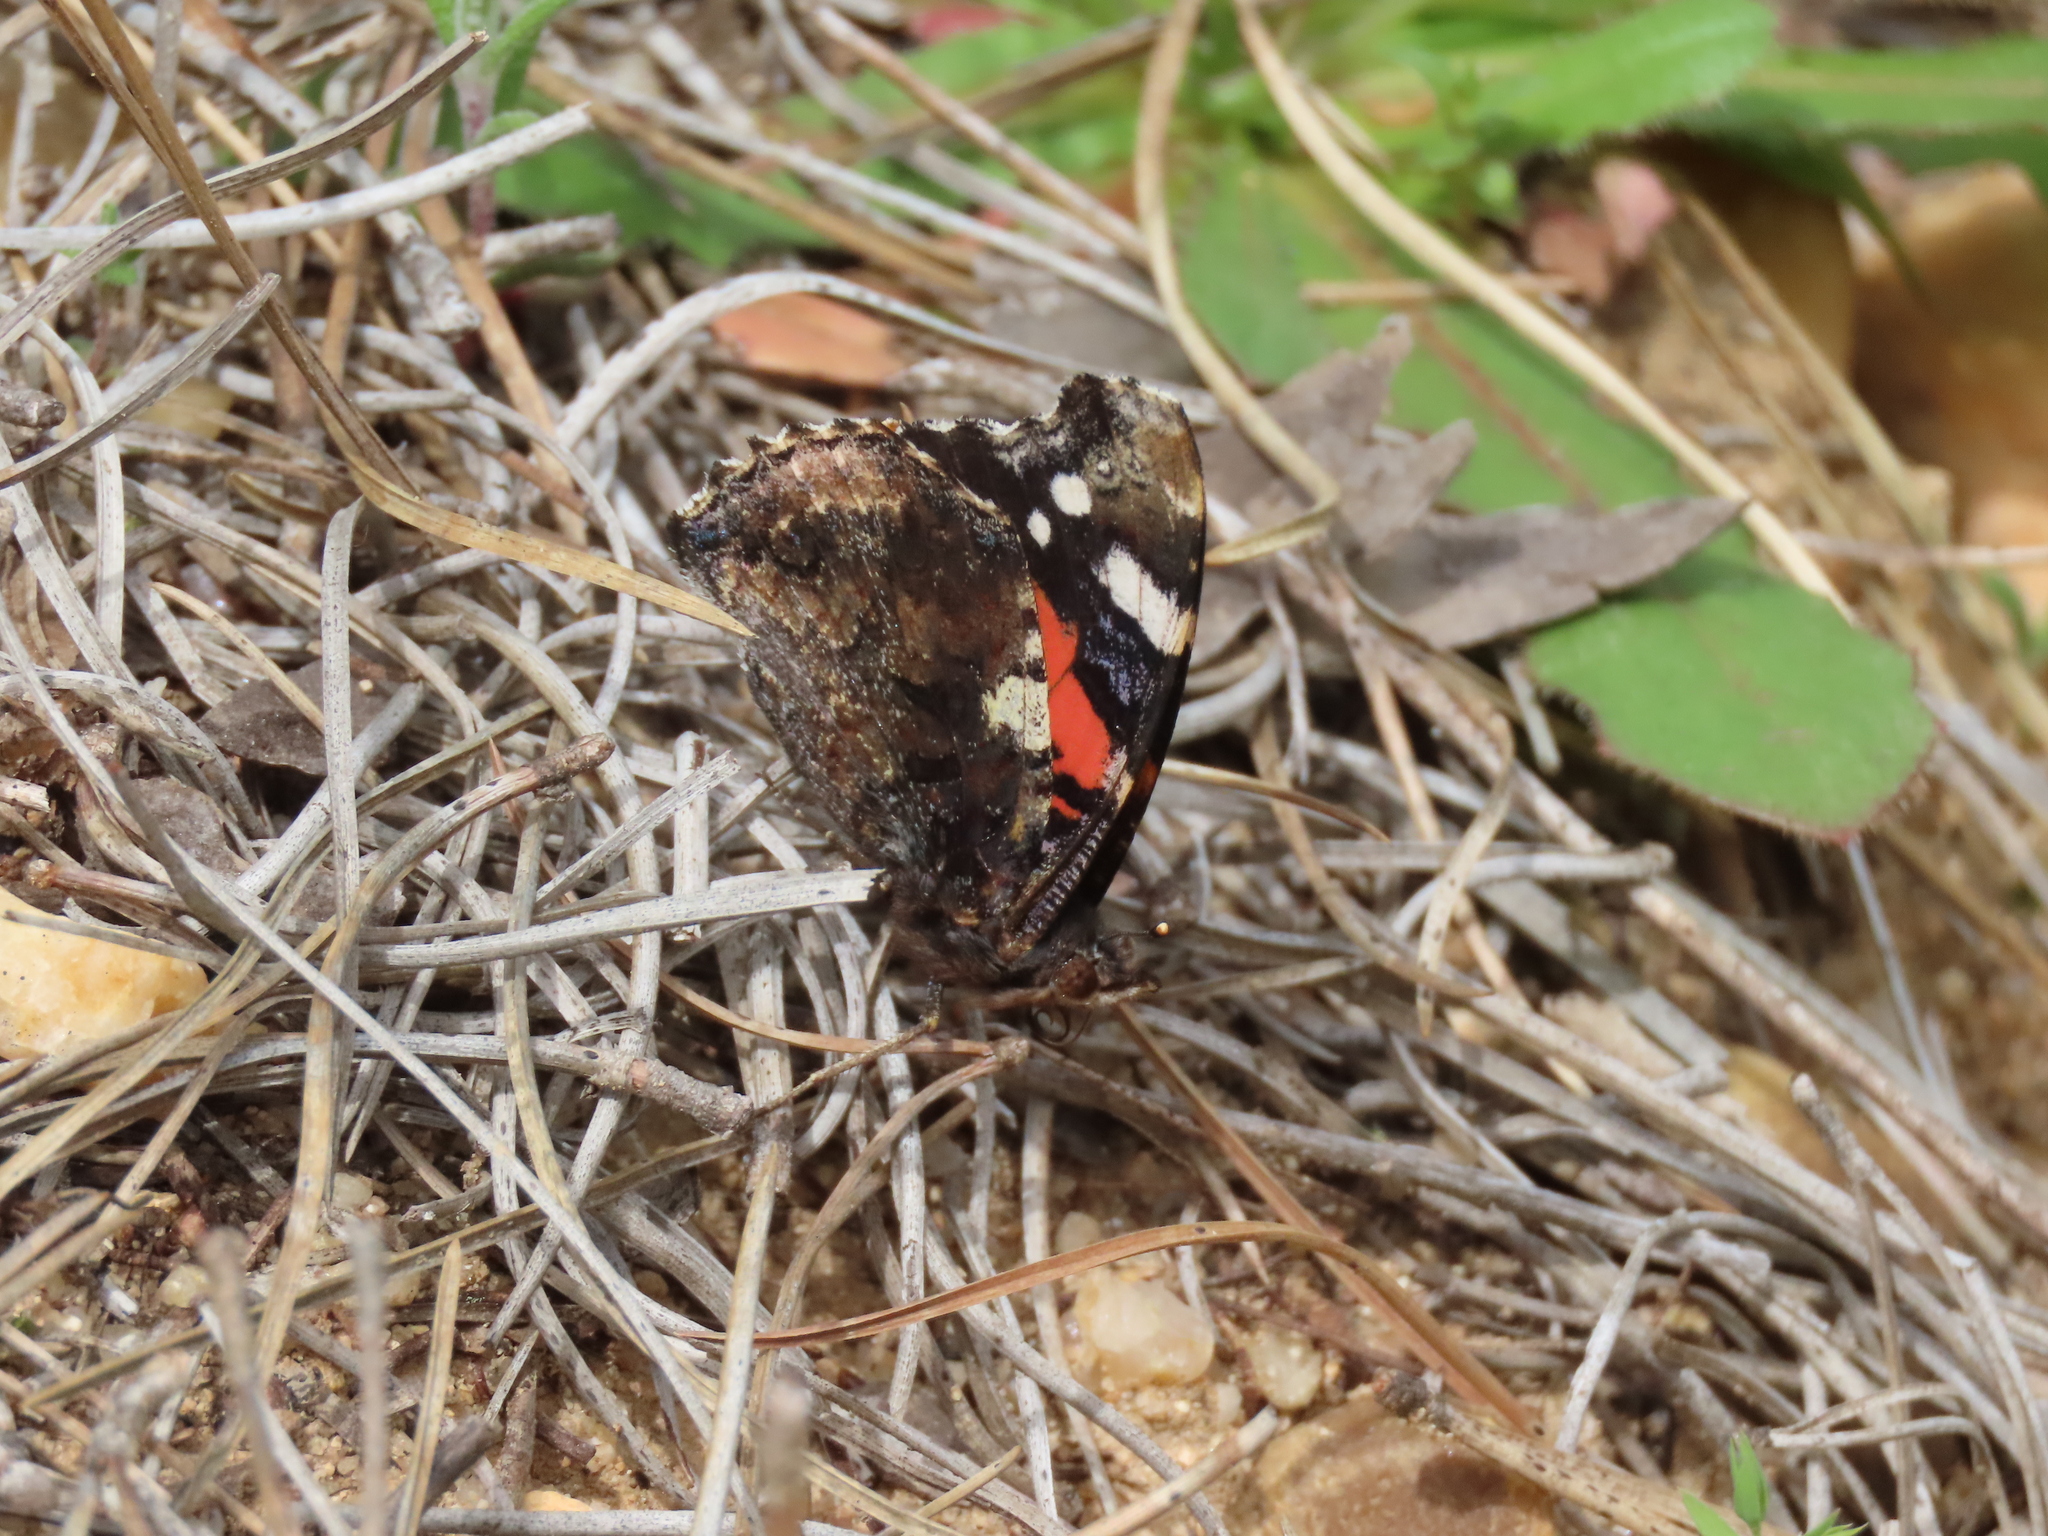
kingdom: Animalia
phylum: Arthropoda
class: Insecta
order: Lepidoptera
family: Nymphalidae
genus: Vanessa
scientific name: Vanessa atalanta
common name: Red admiral
